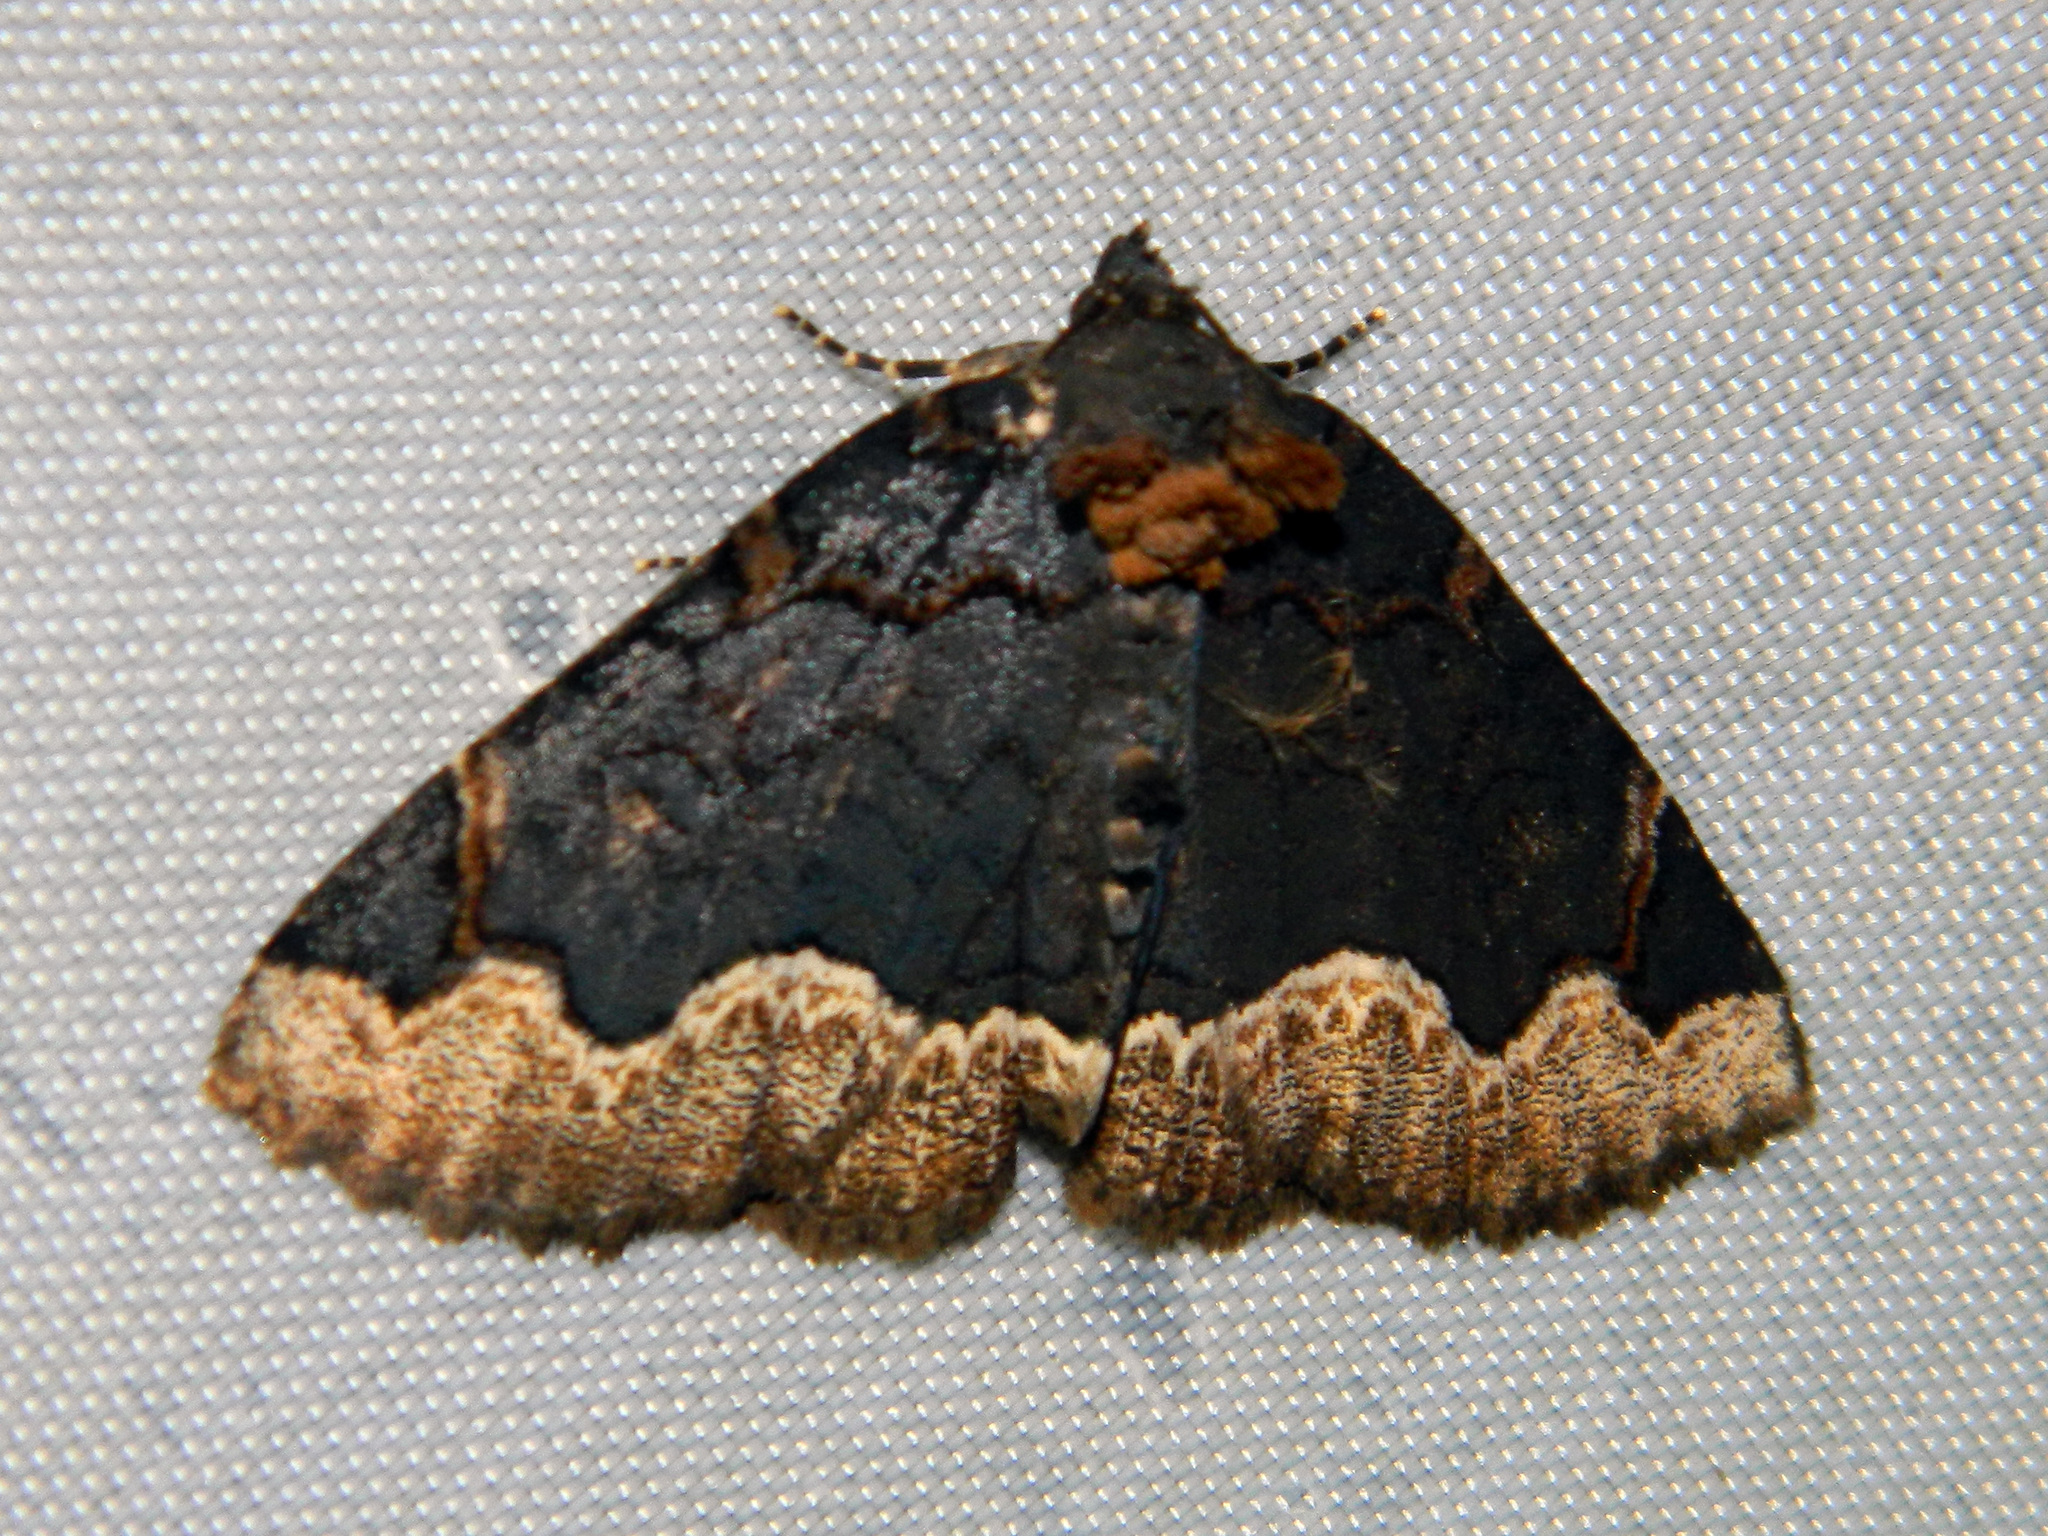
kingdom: Animalia
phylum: Arthropoda
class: Insecta
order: Lepidoptera
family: Erebidae
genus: Zale
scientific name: Zale horrida
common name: Horrid zale moth
